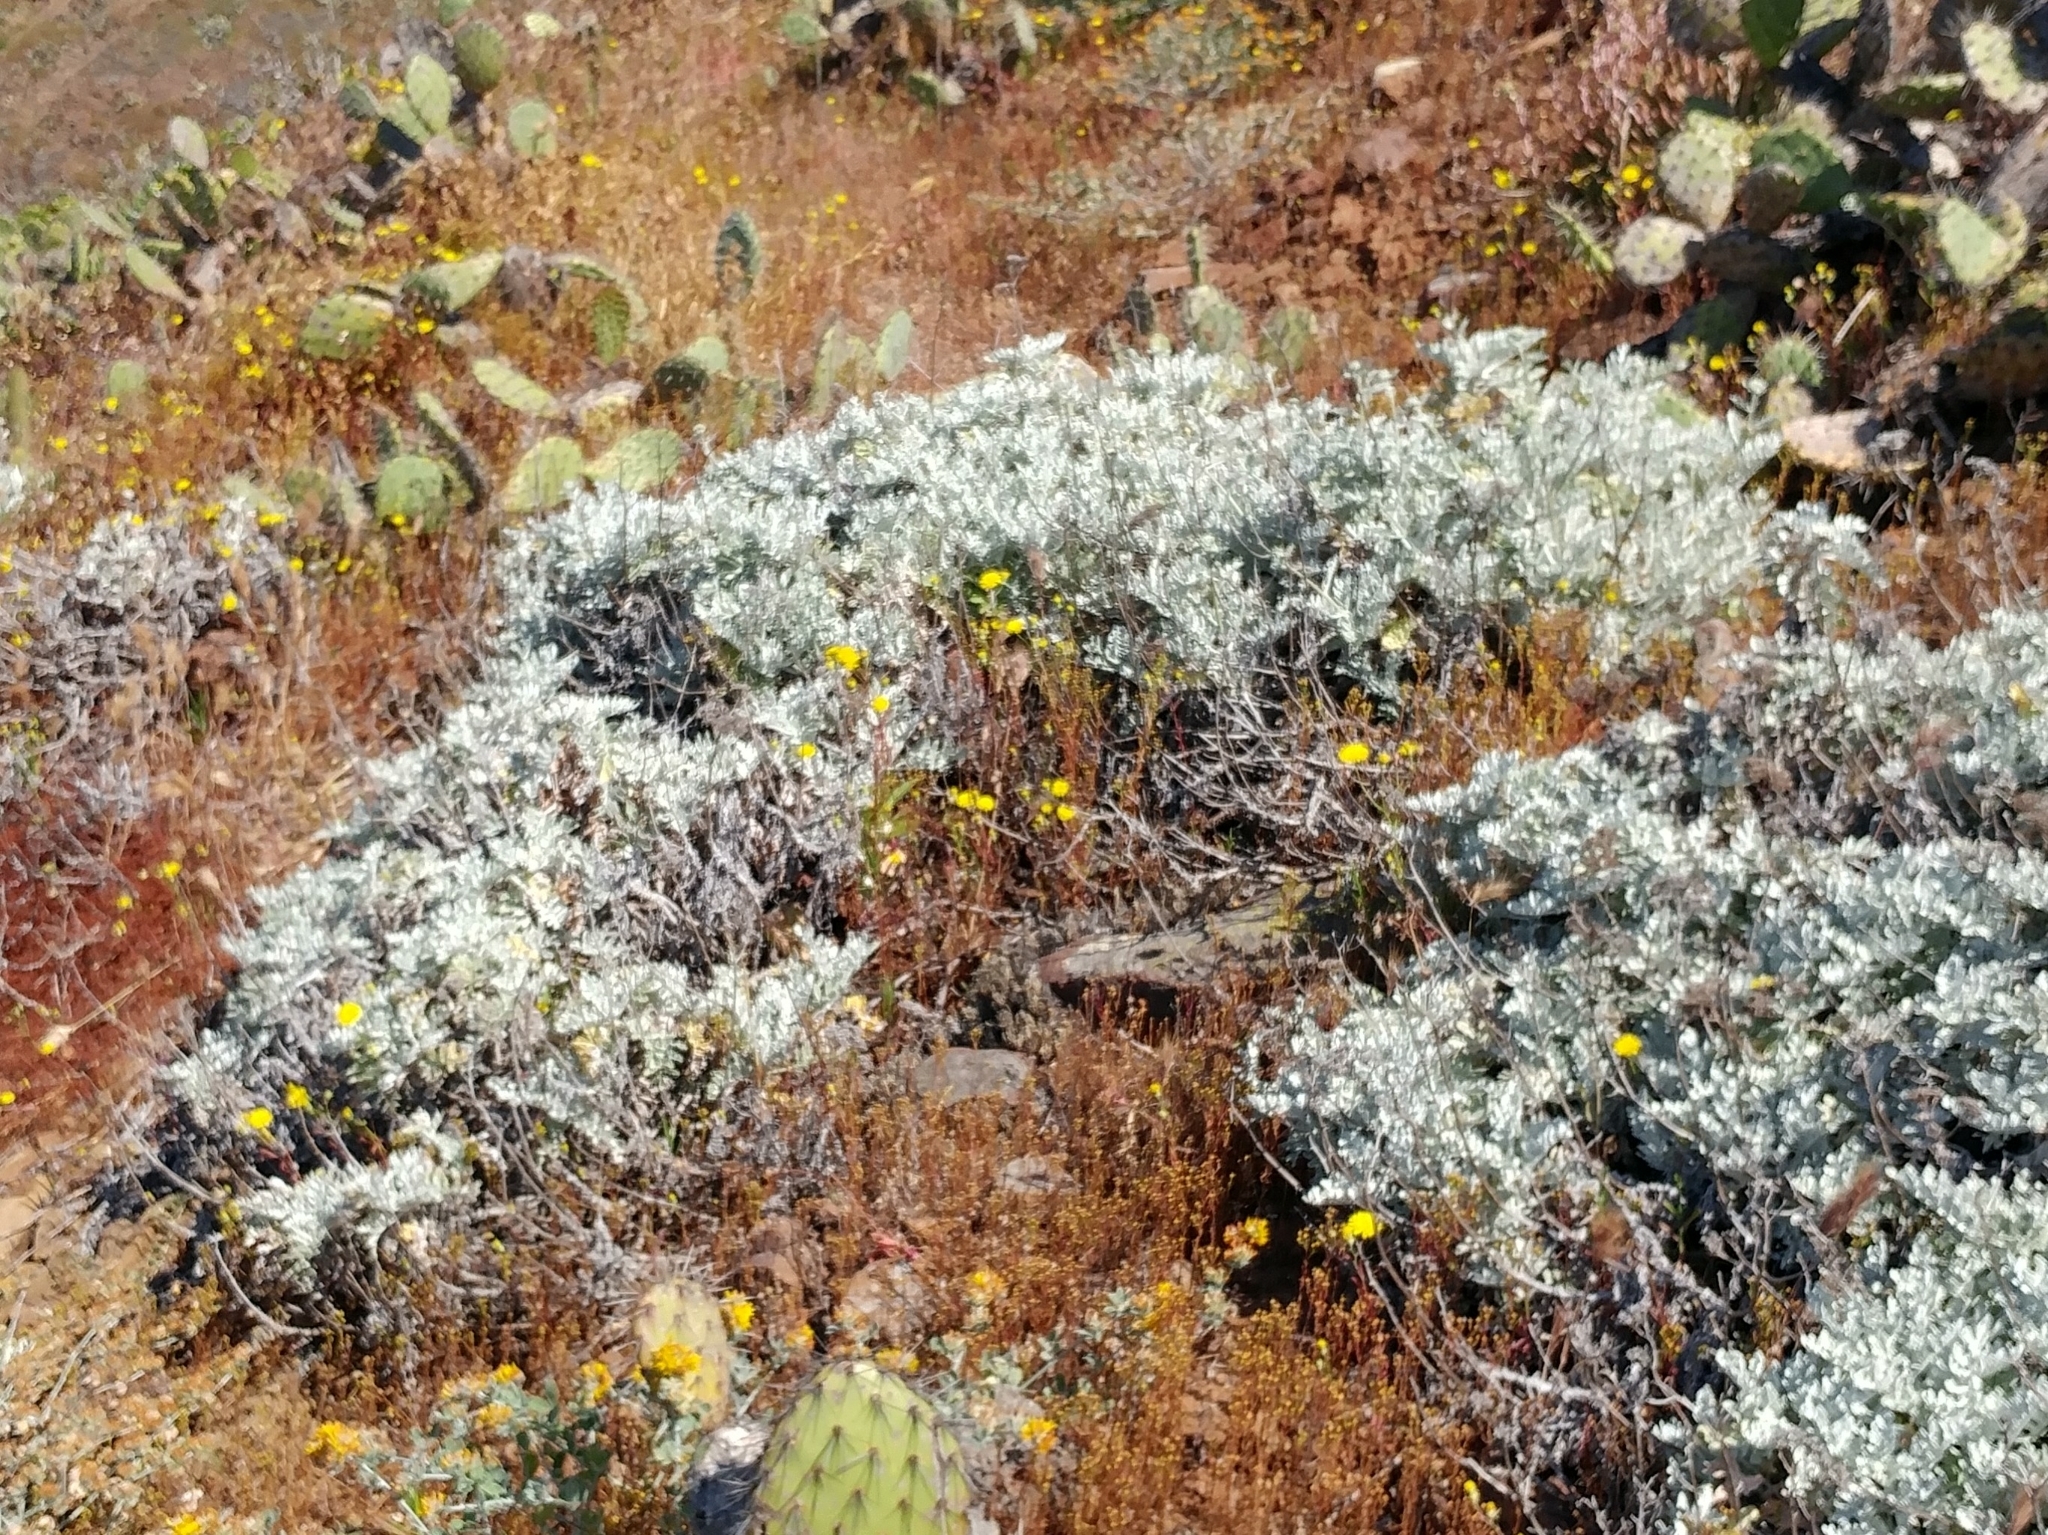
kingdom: Plantae
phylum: Tracheophyta
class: Magnoliopsida
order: Asterales
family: Asteraceae
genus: Constancea
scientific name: Constancea nevinii
